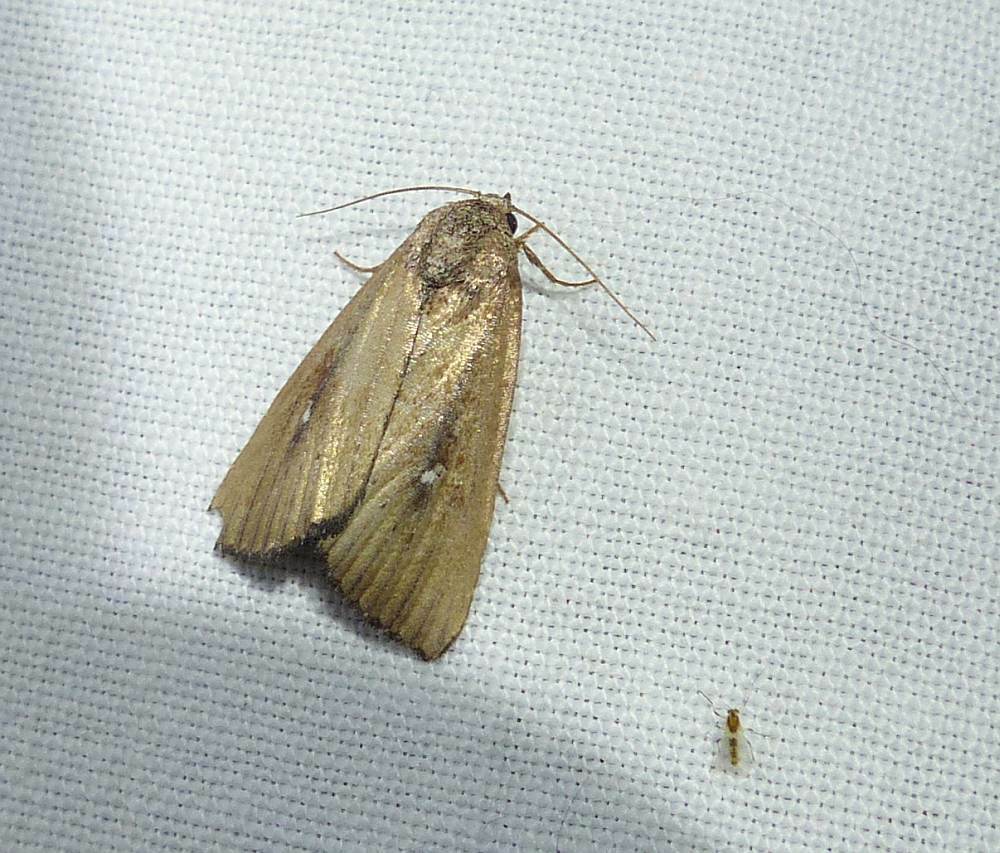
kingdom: Animalia
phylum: Arthropoda
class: Insecta
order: Lepidoptera
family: Noctuidae
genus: Condica
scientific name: Condica videns
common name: White-dotted groundling
